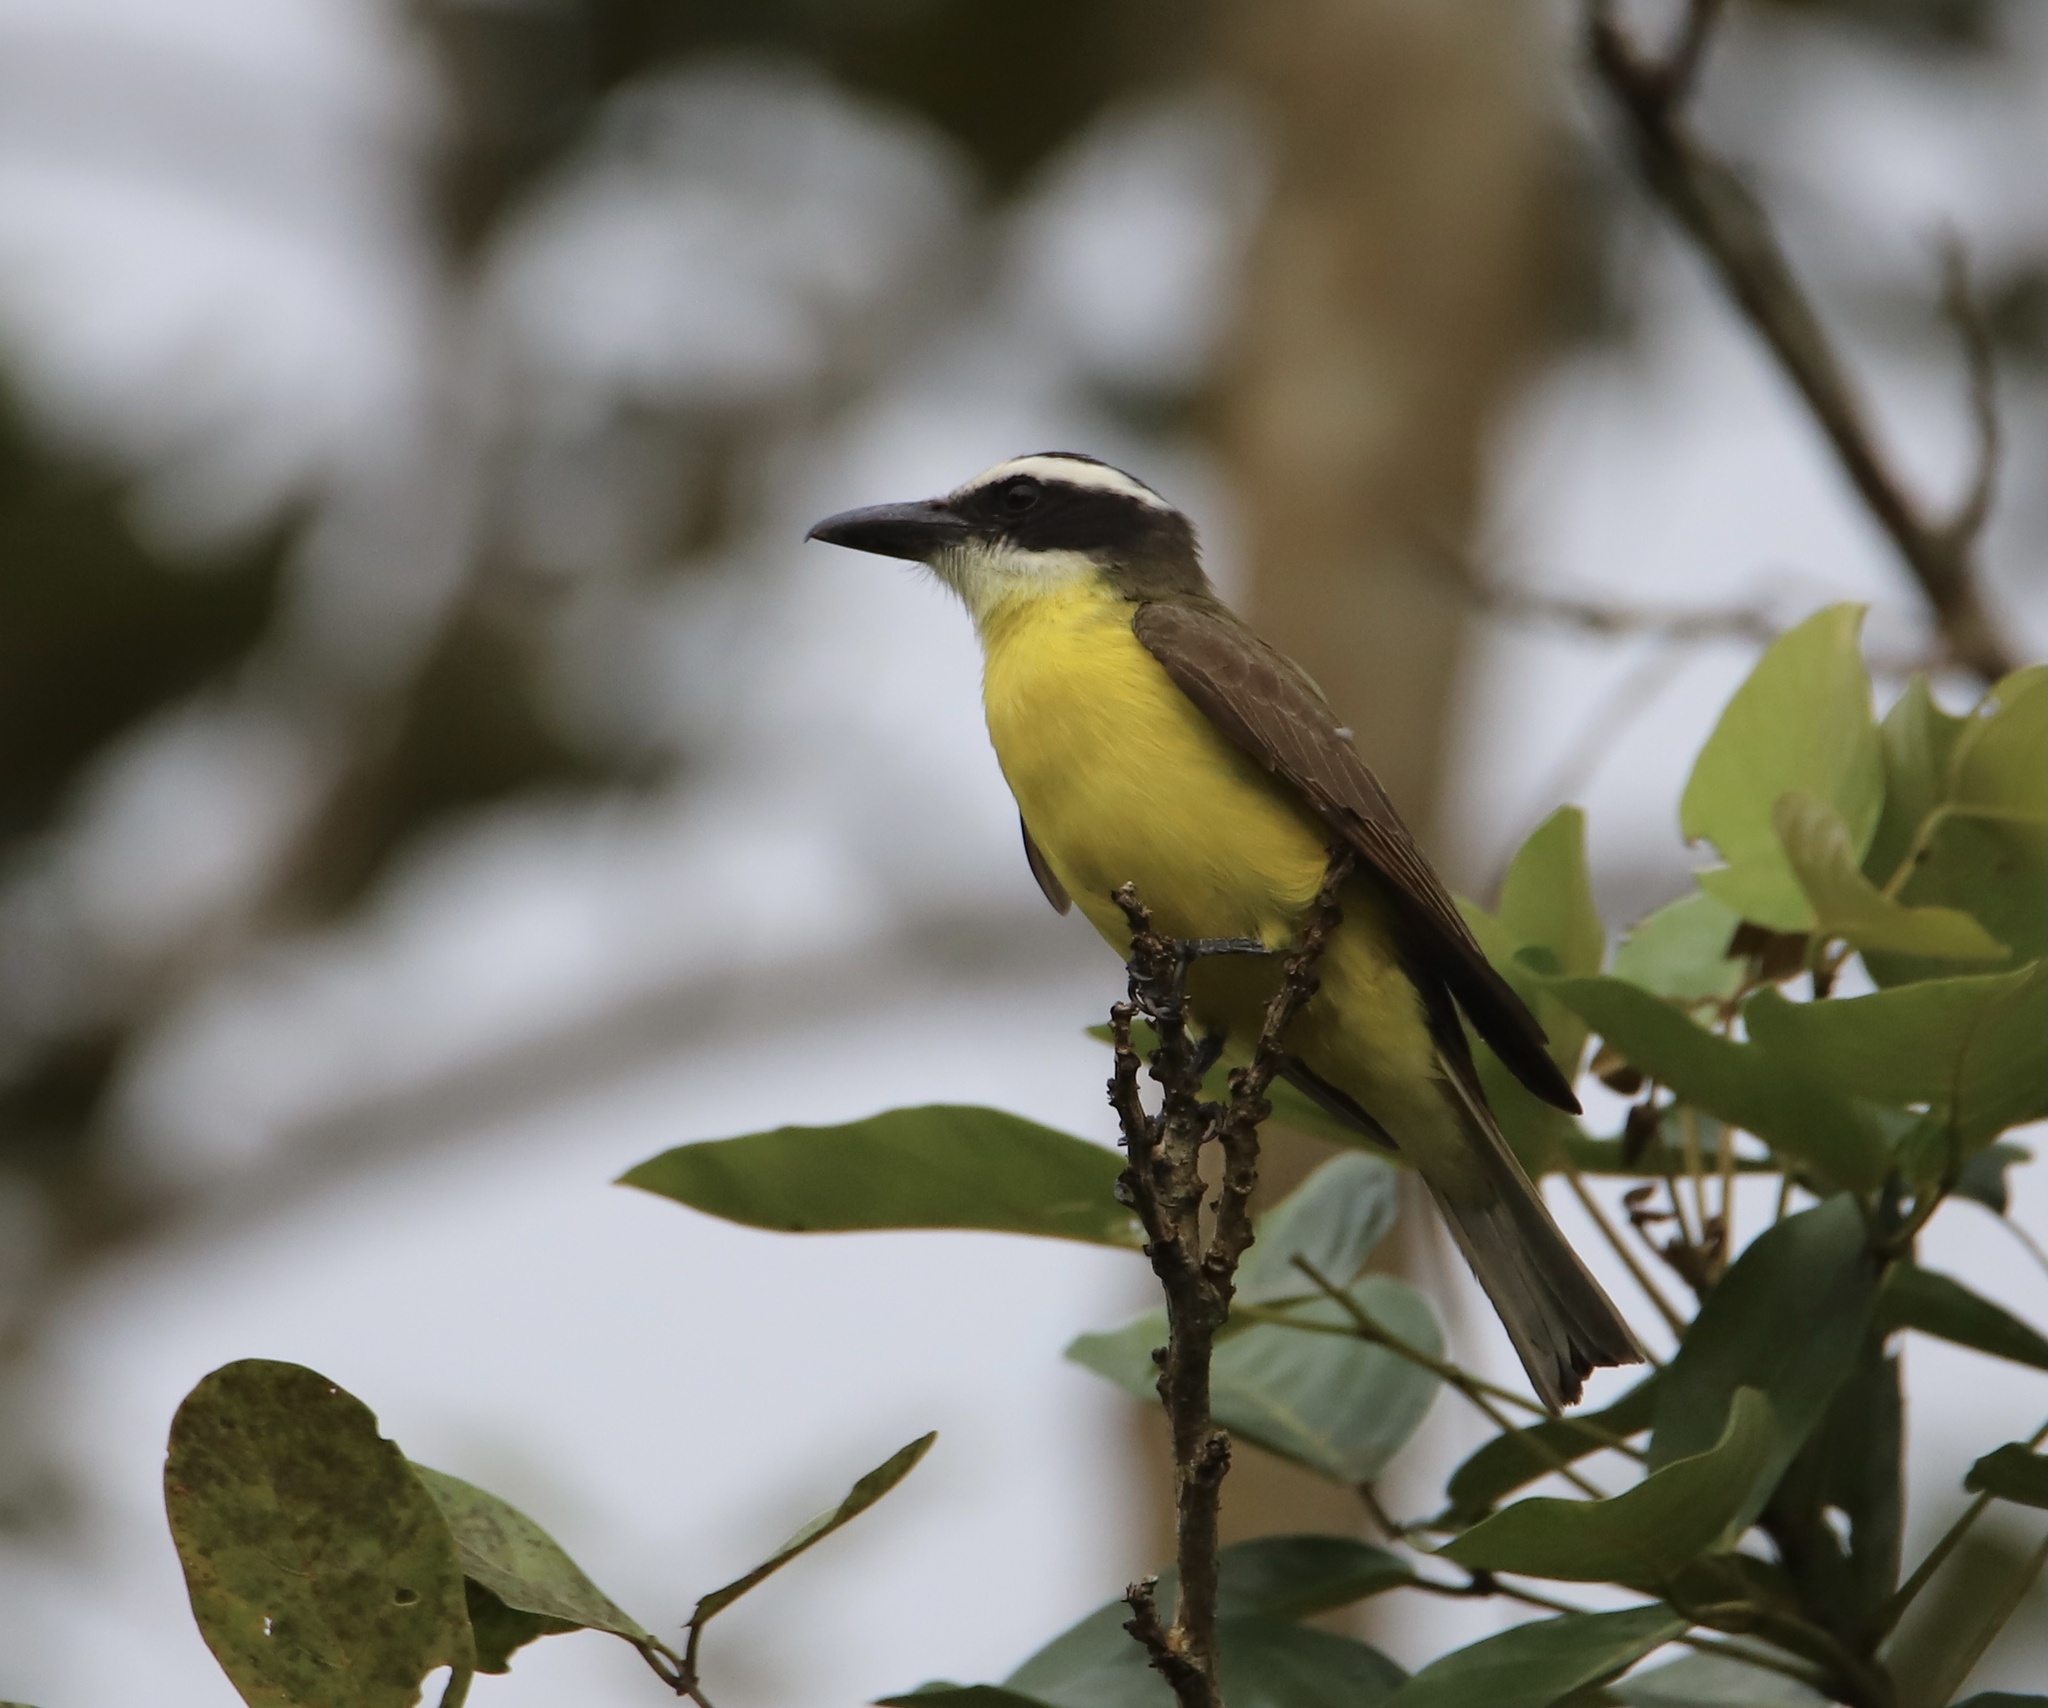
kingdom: Animalia
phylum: Chordata
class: Aves
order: Passeriformes
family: Tyrannidae
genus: Megarynchus
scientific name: Megarynchus pitangua
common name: Boat-billed flycatcher
